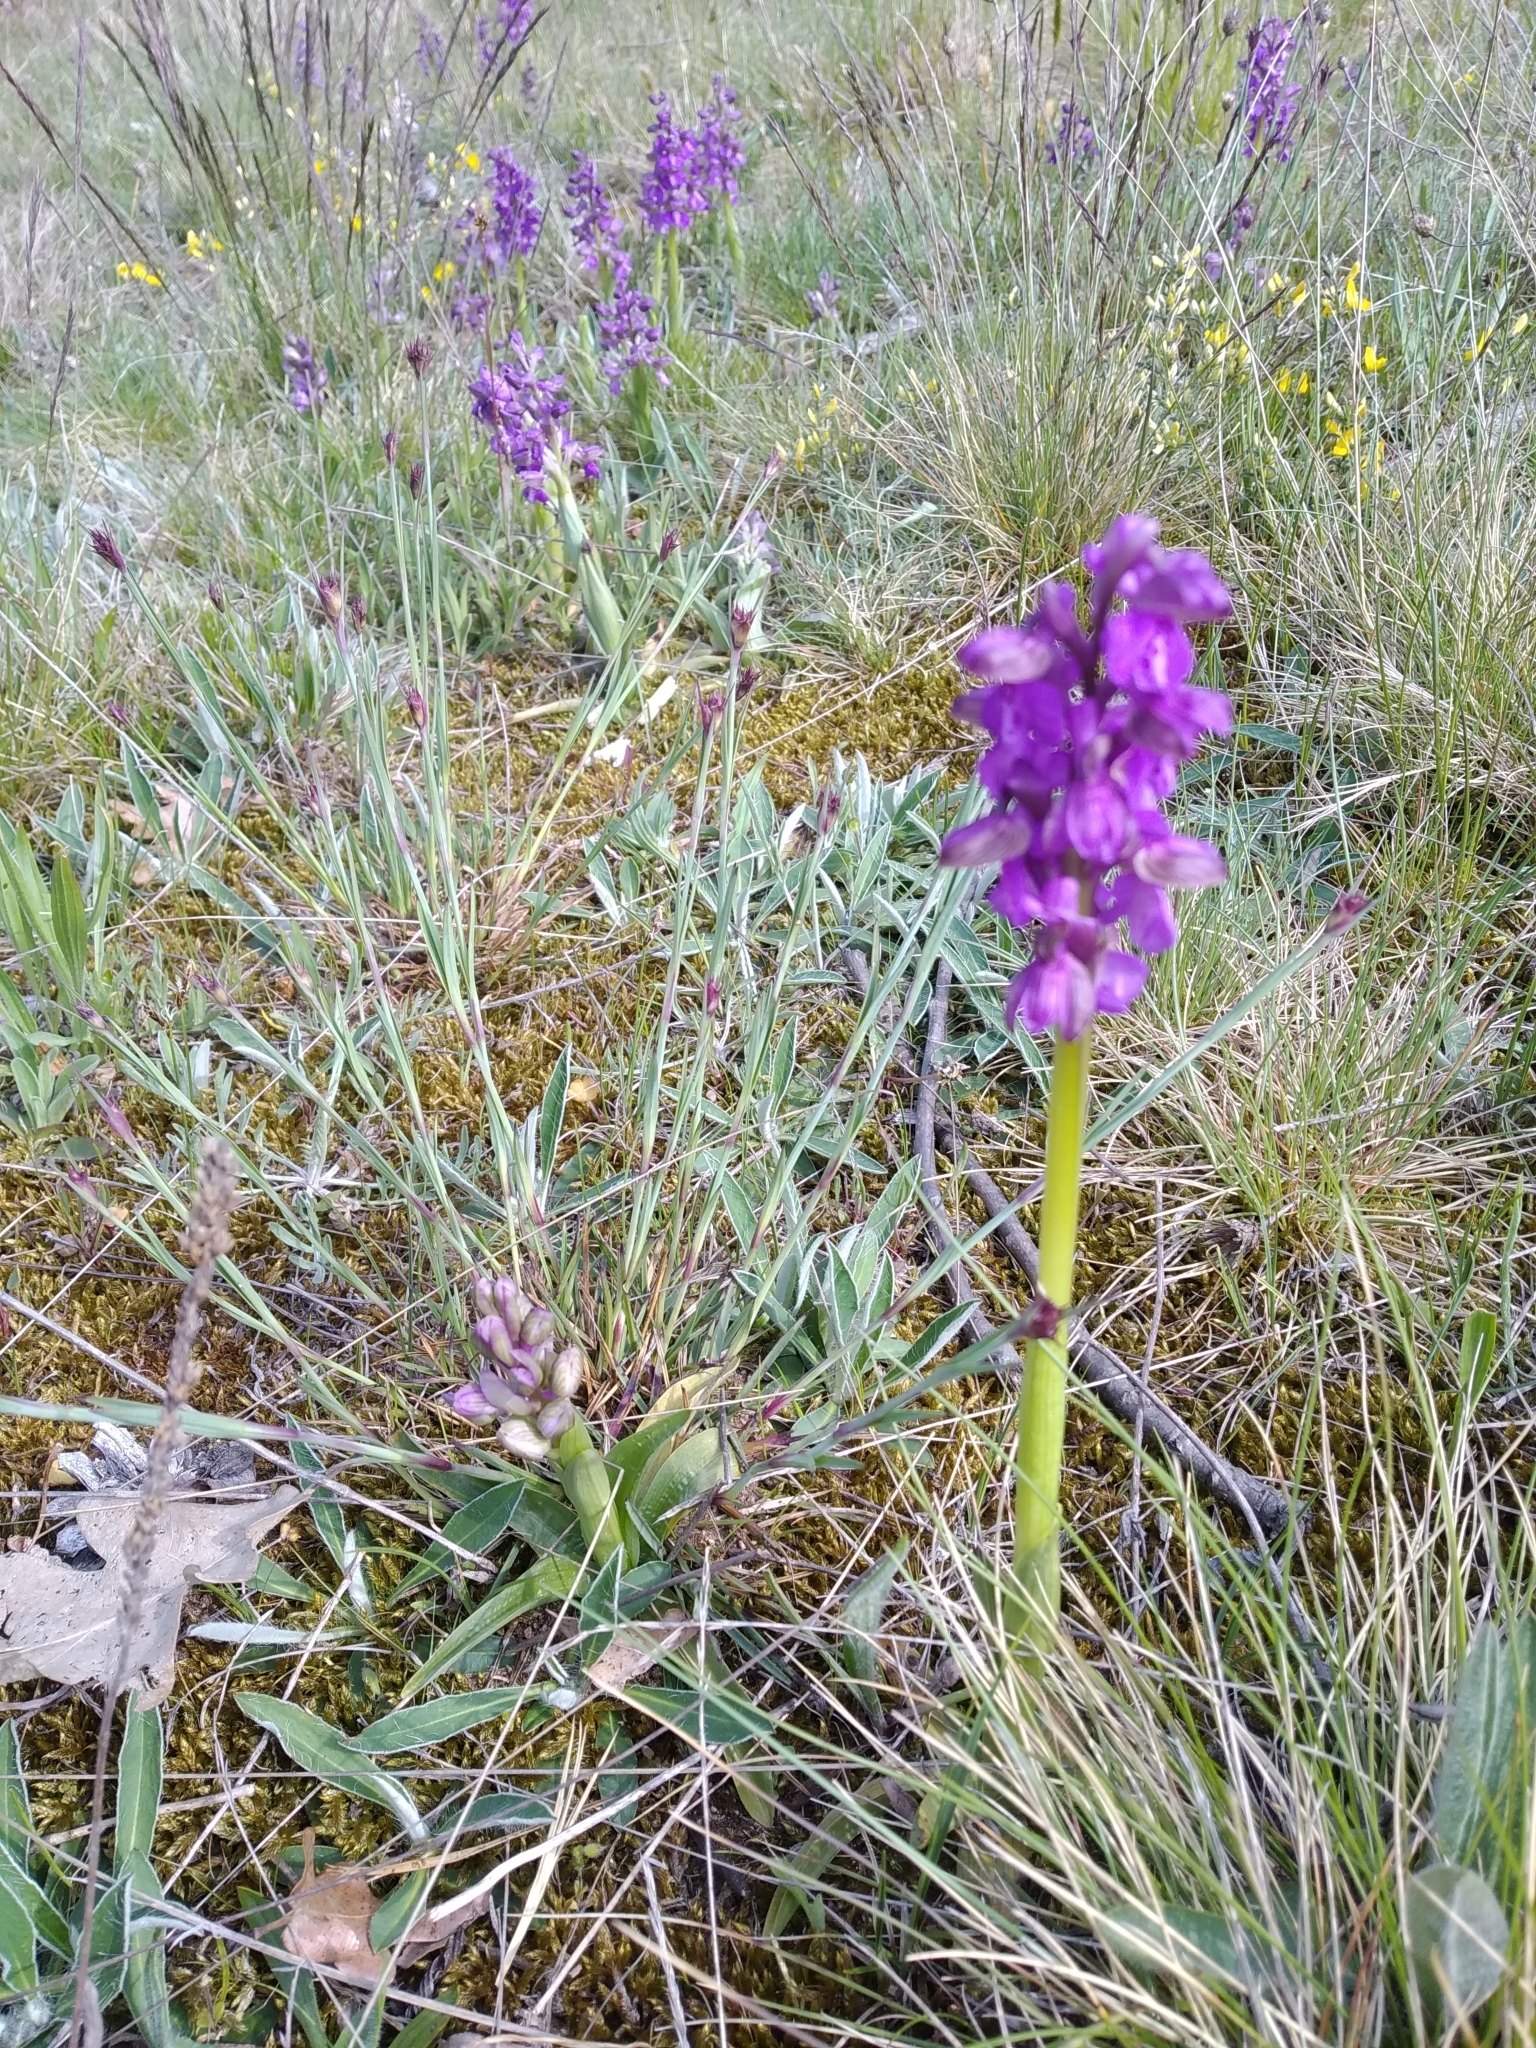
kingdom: Plantae
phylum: Tracheophyta
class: Liliopsida
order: Asparagales
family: Orchidaceae
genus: Anacamptis
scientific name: Anacamptis morio
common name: Green-winged orchid
